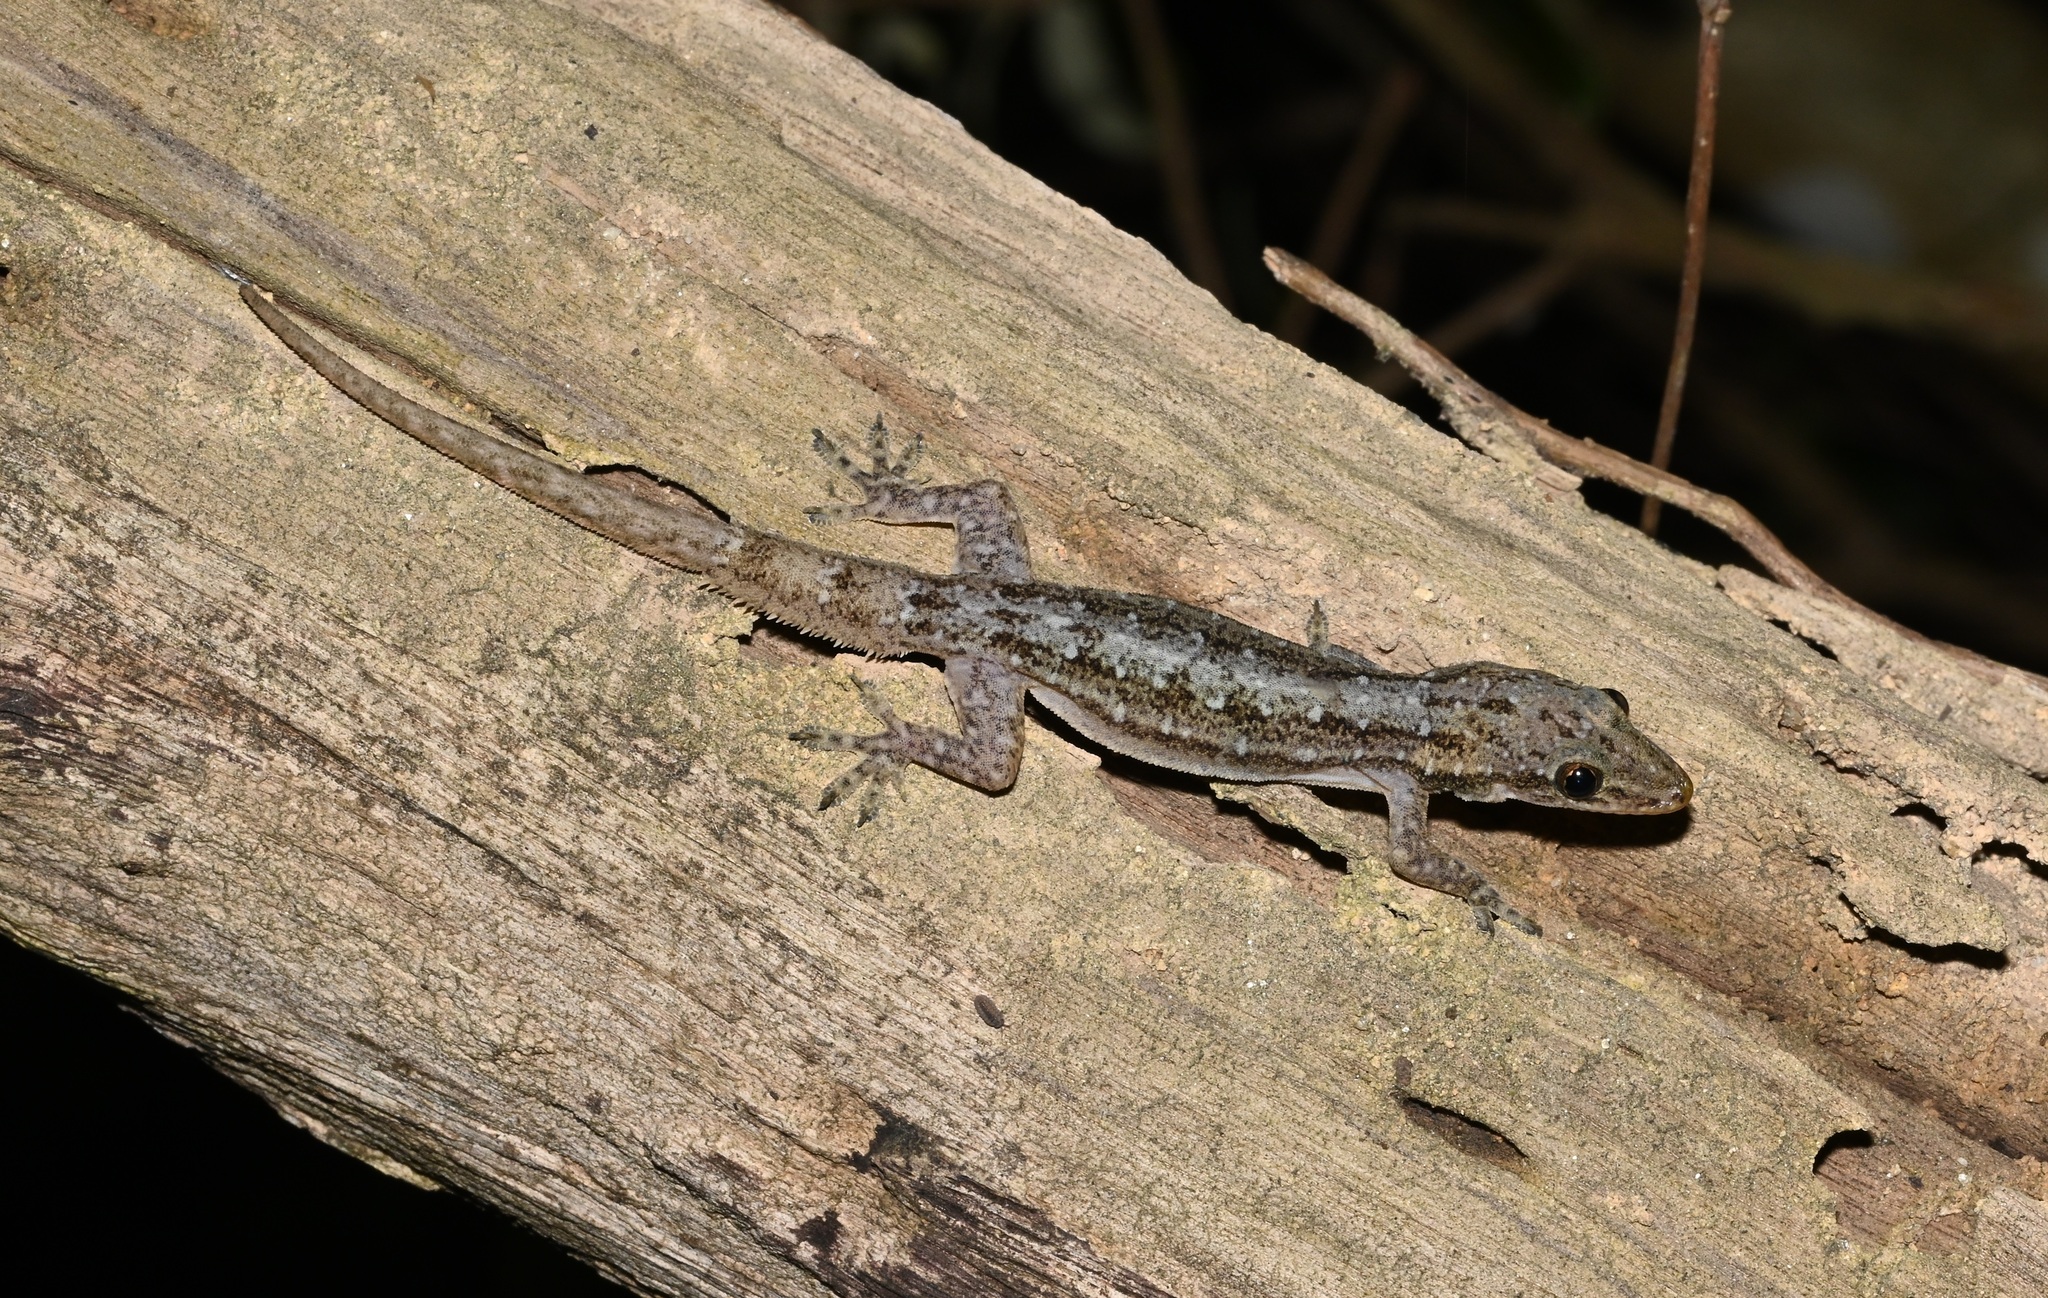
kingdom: Animalia
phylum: Chordata
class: Squamata
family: Gekkonidae
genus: Hemidactylus
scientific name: Hemidactylus garnotii
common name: Indo-pacific gecko
